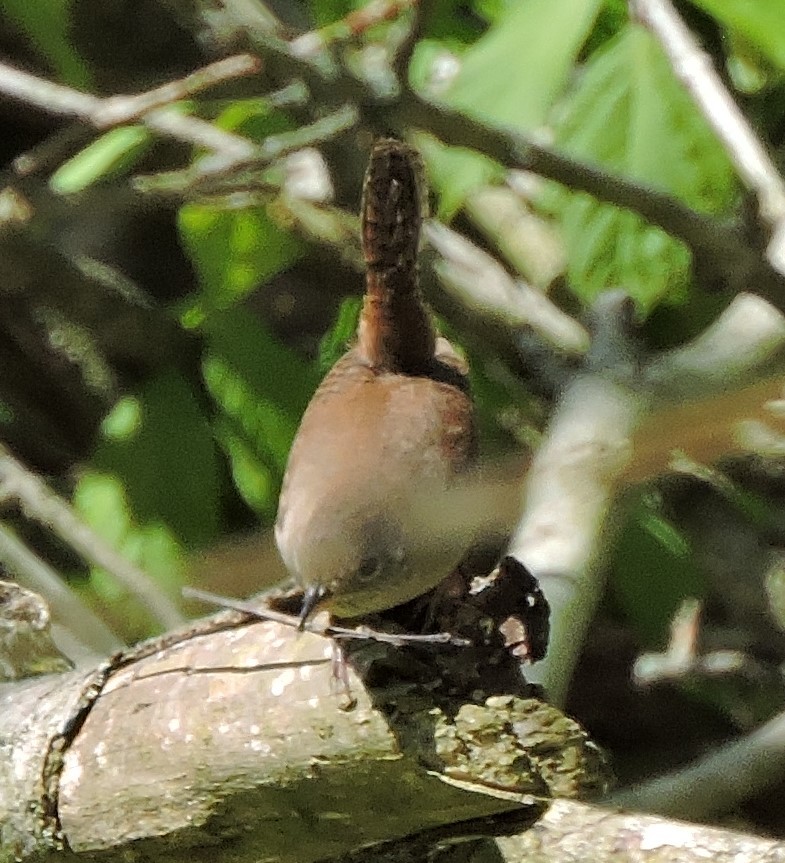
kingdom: Animalia
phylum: Chordata
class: Aves
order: Passeriformes
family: Troglodytidae
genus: Troglodytes
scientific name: Troglodytes aedon
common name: House wren
